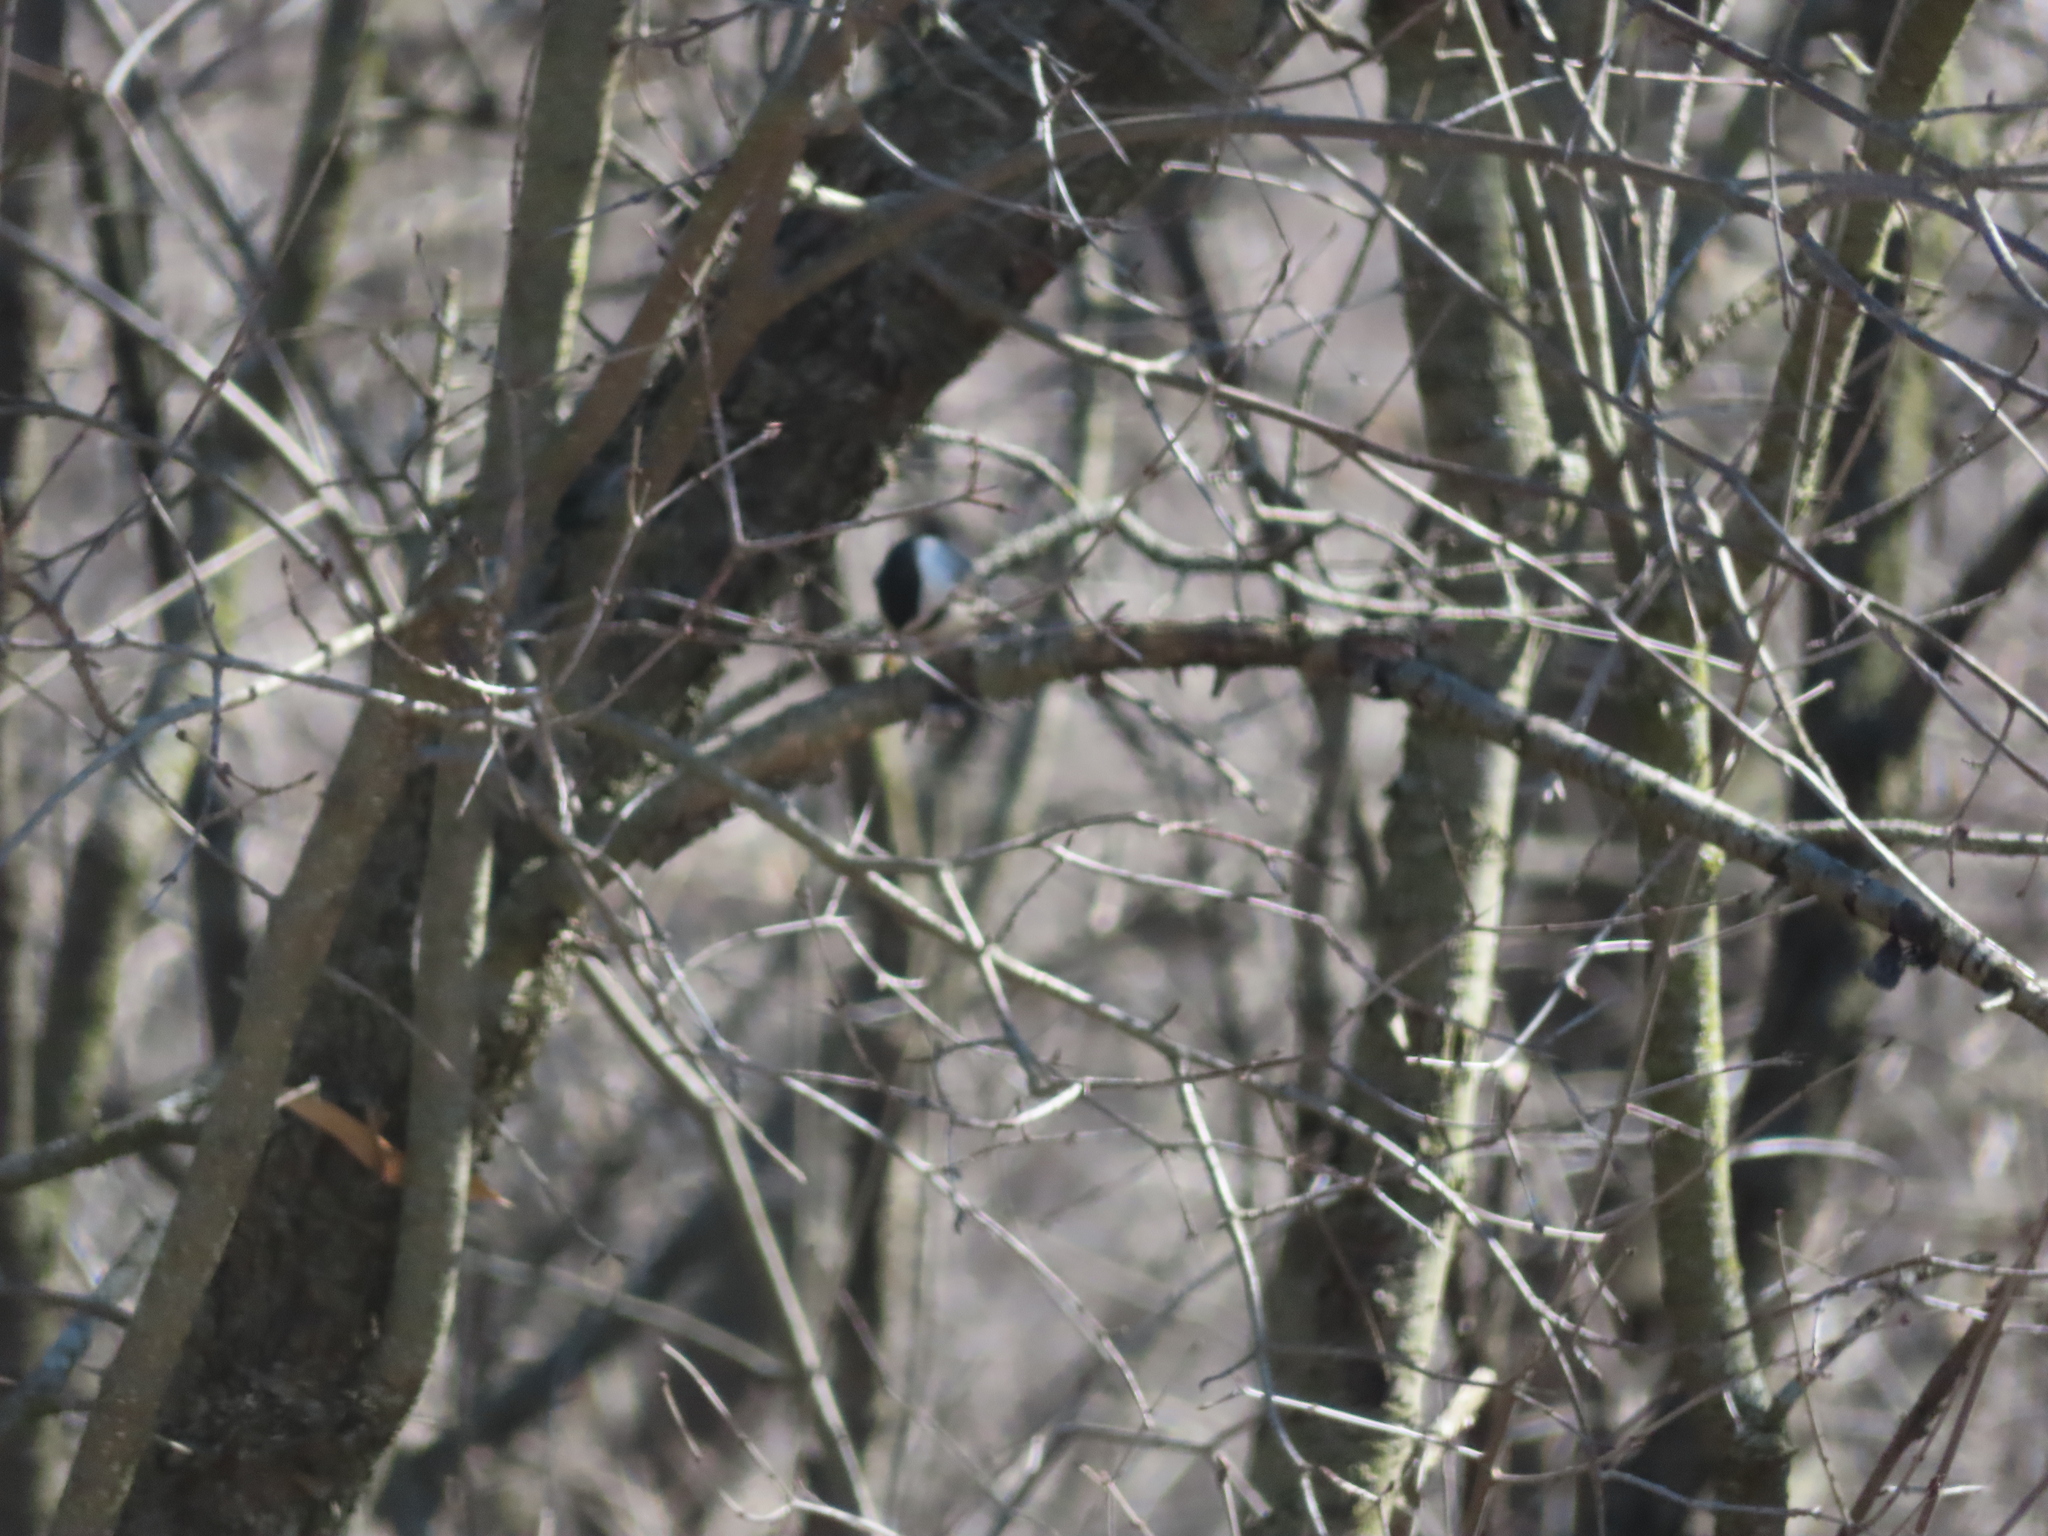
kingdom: Animalia
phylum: Chordata
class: Aves
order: Passeriformes
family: Paridae
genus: Poecile
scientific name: Poecile atricapillus
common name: Black-capped chickadee
